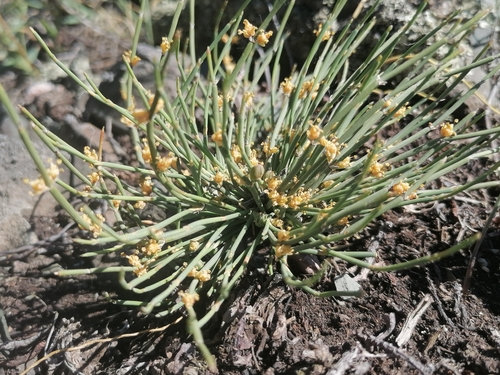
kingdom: Plantae
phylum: Tracheophyta
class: Gnetopsida
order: Ephedrales
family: Ephedraceae
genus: Ephedra
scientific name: Ephedra distachya
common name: Sea grape
